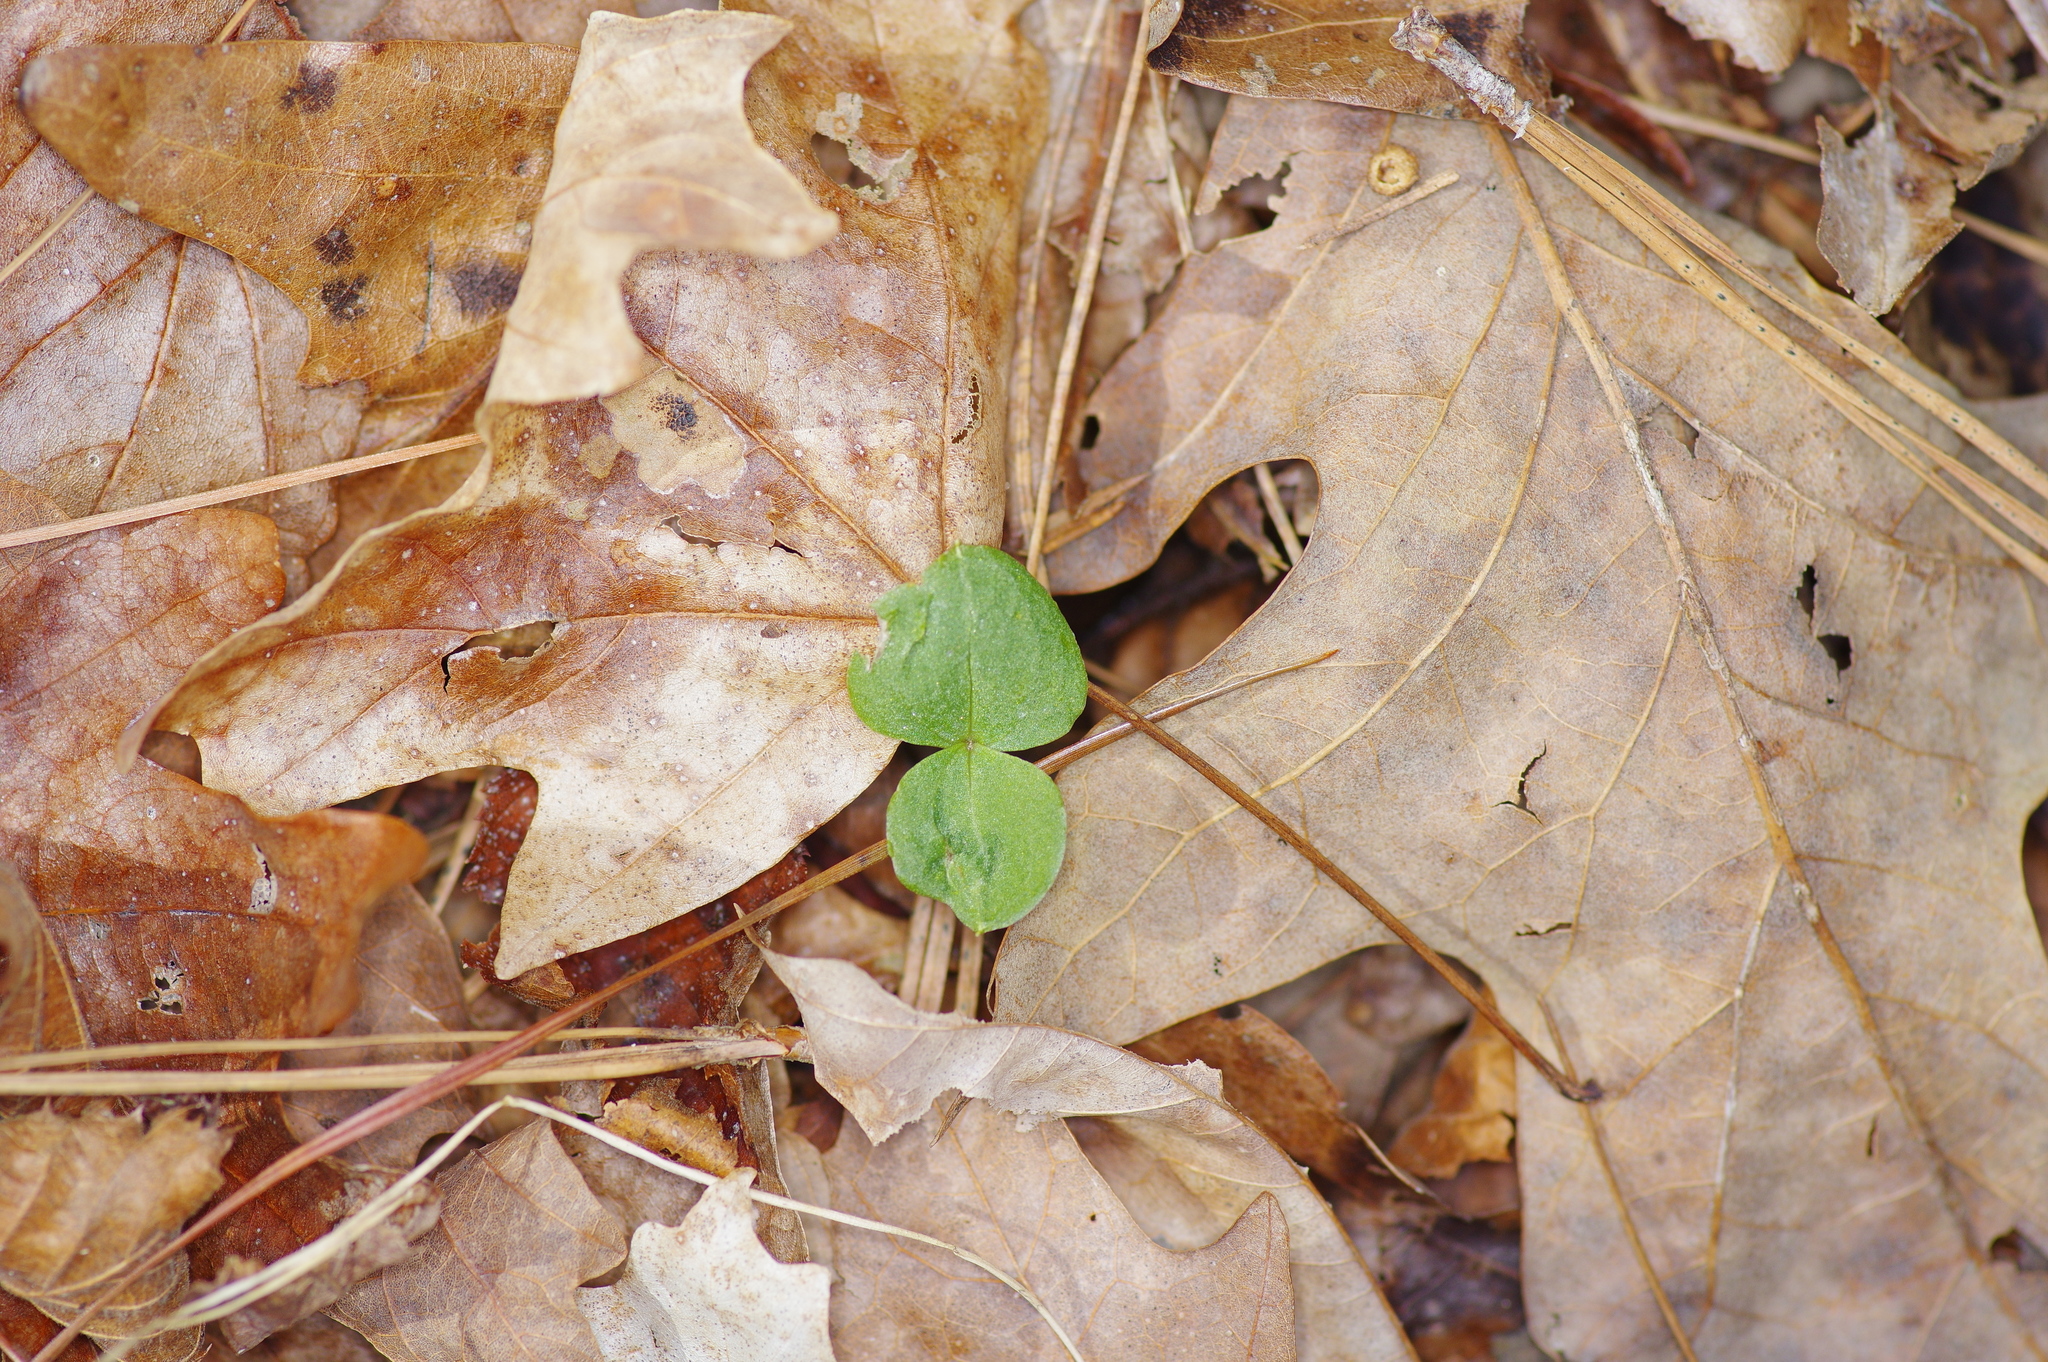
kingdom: Plantae
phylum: Tracheophyta
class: Liliopsida
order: Asparagales
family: Orchidaceae
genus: Neottia
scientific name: Neottia bifolia
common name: Southern twayblade
